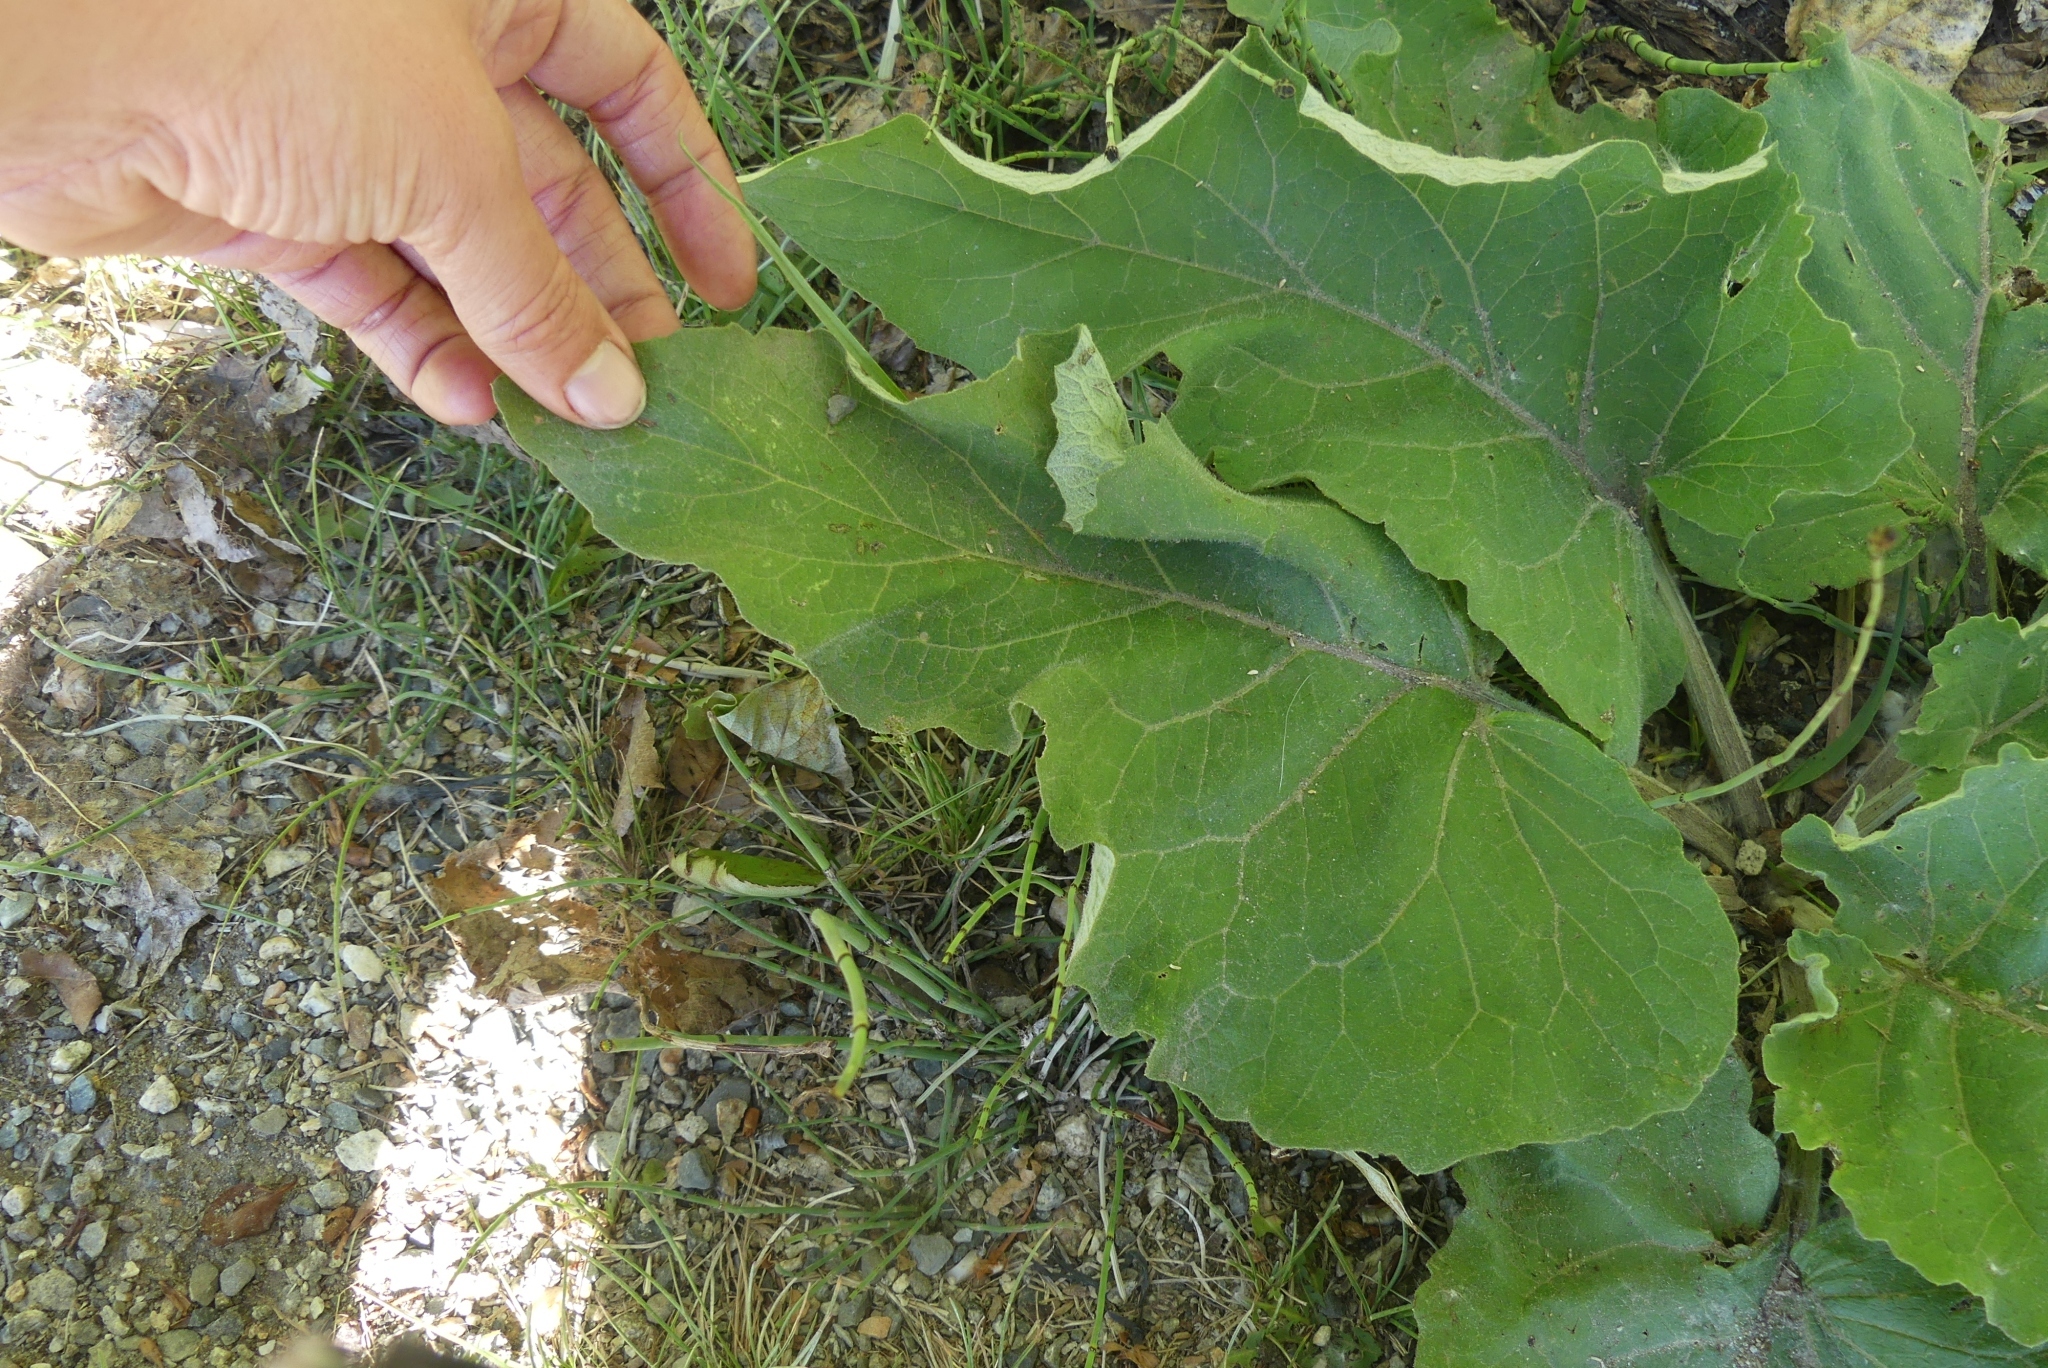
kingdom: Plantae
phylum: Tracheophyta
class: Magnoliopsida
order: Asterales
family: Asteraceae
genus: Arctium
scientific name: Arctium
